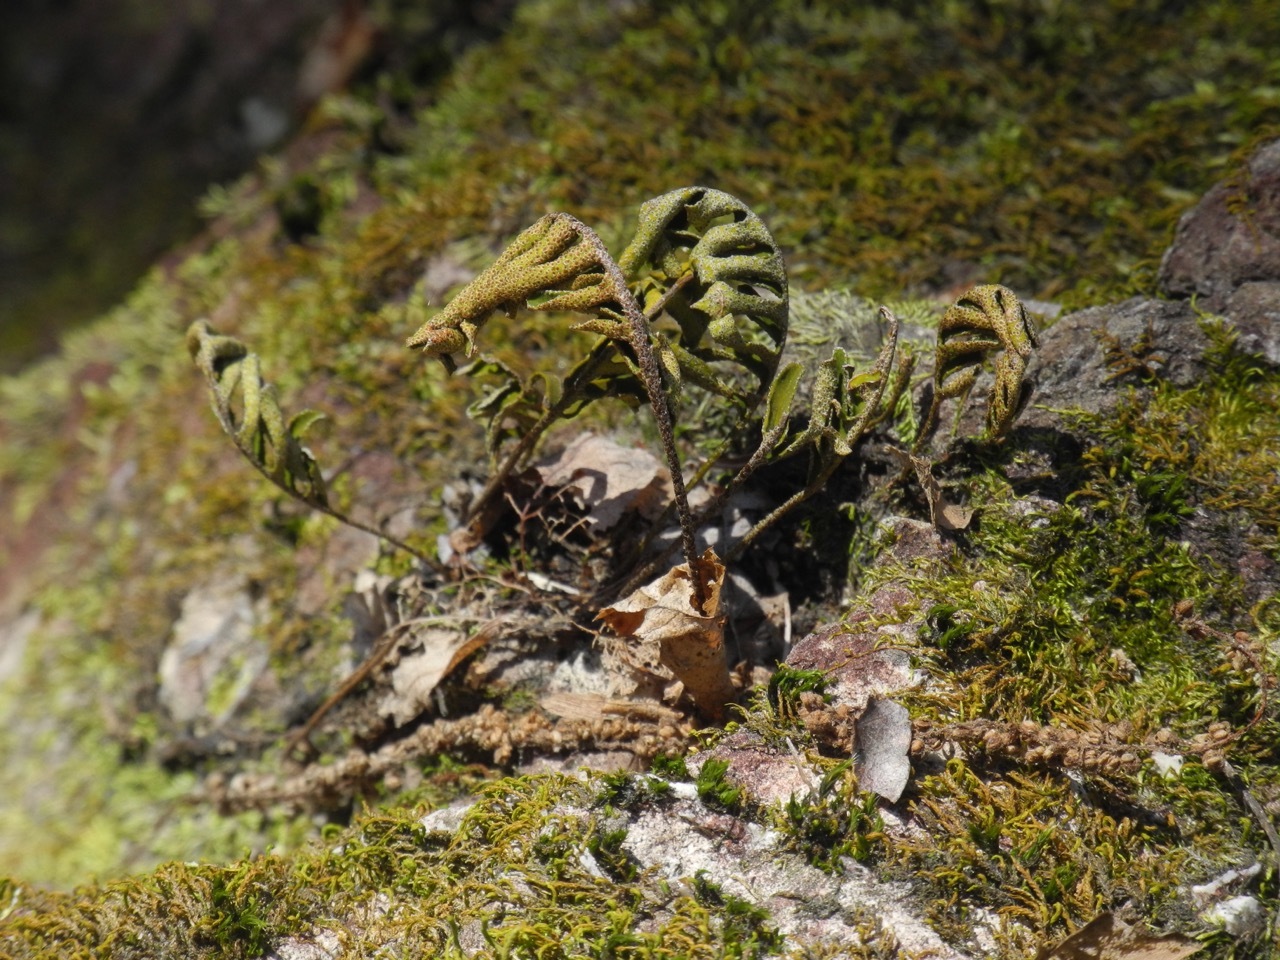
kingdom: Plantae
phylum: Tracheophyta
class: Polypodiopsida
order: Polypodiales
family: Polypodiaceae
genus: Pleopeltis
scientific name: Pleopeltis michauxiana
